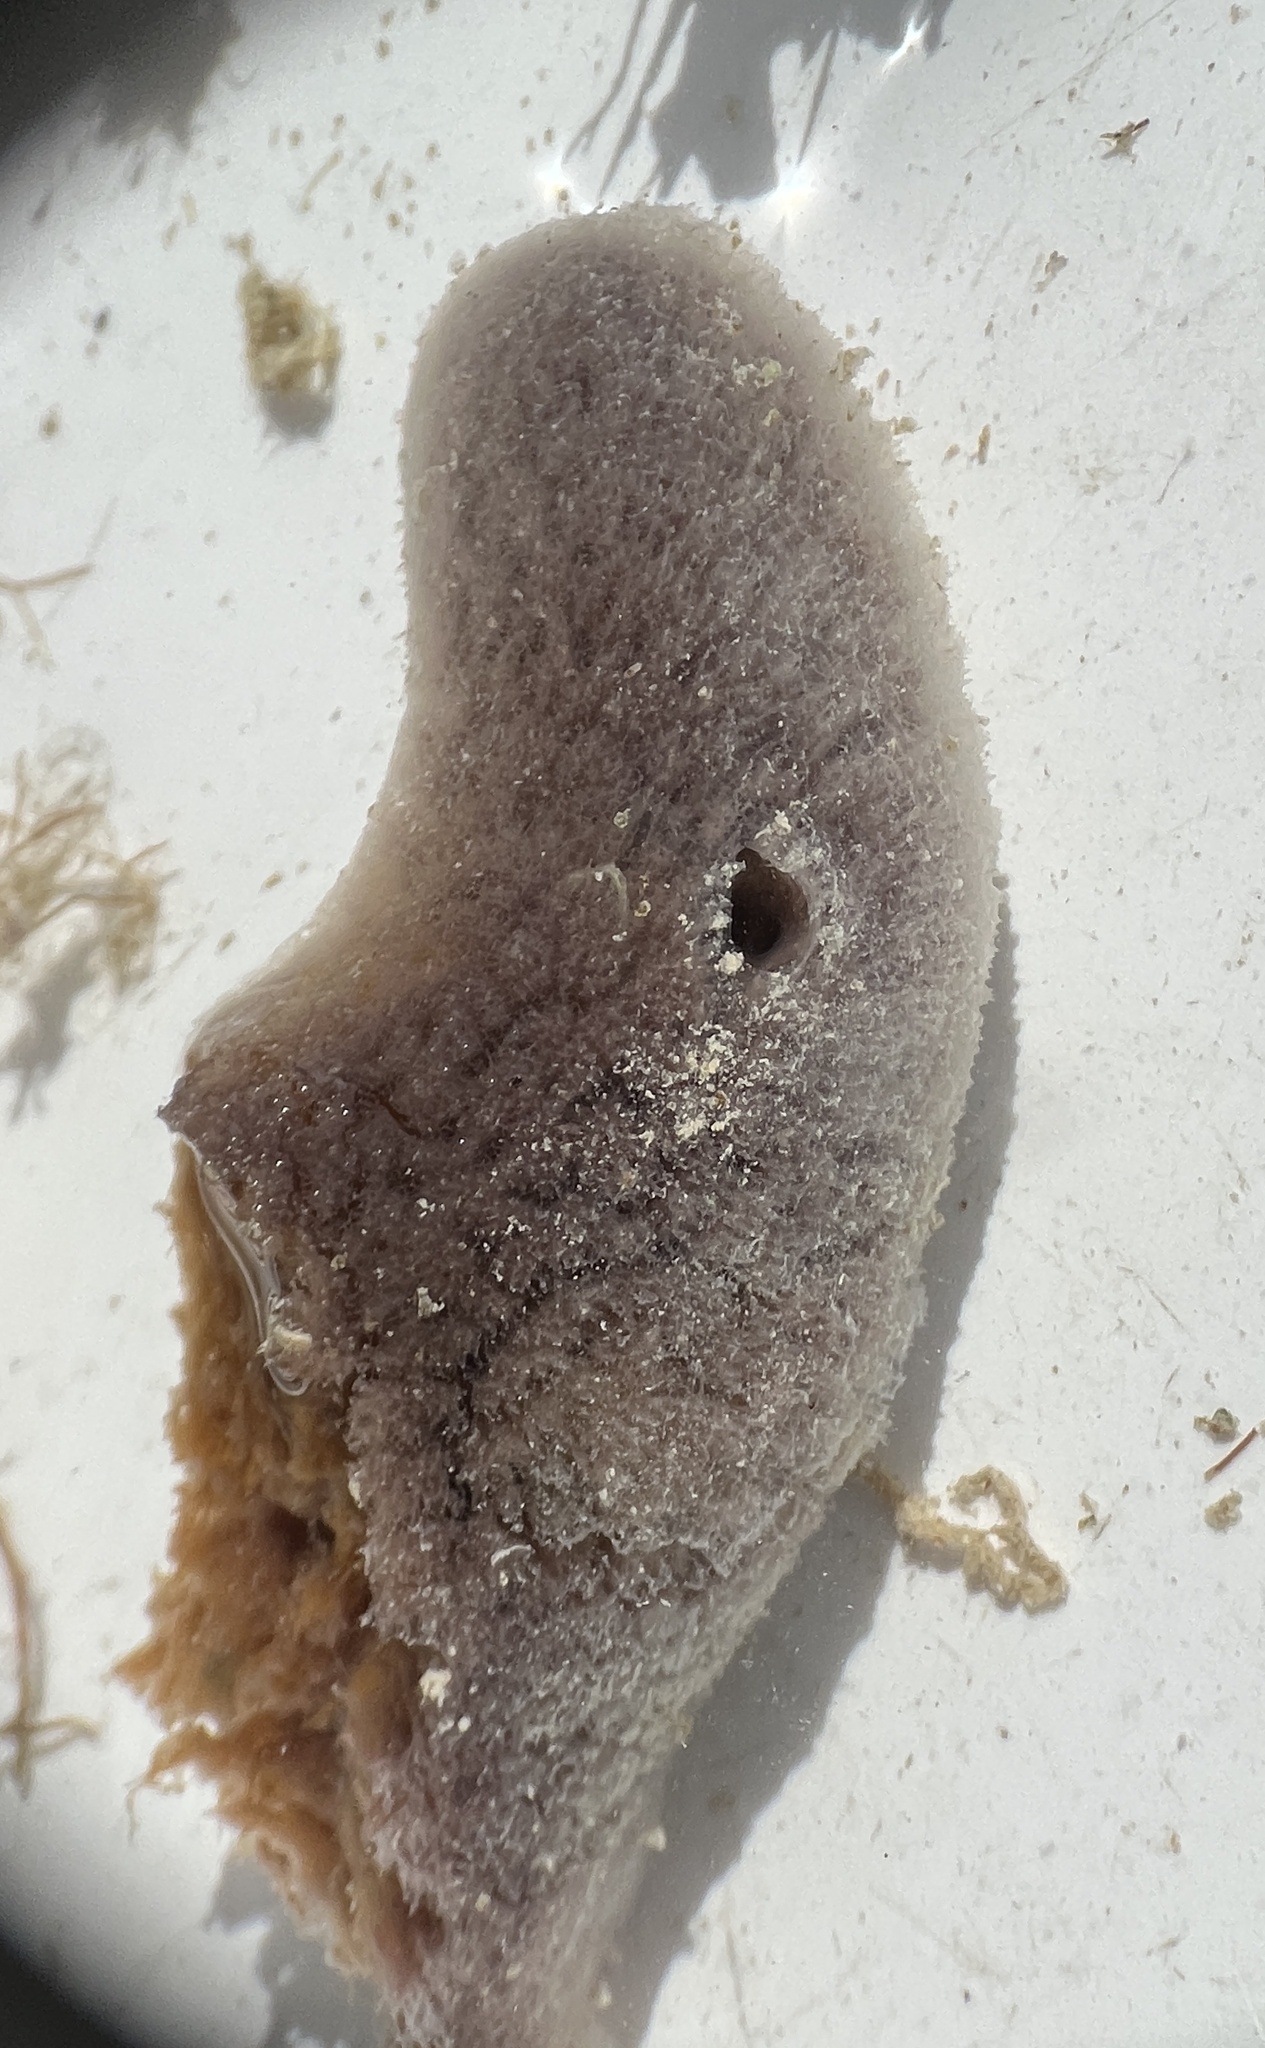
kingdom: Animalia
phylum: Porifera
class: Demospongiae
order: Haplosclerida
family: Niphatidae
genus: Niphates
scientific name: Niphates erecta
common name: Lavender rope sponge
